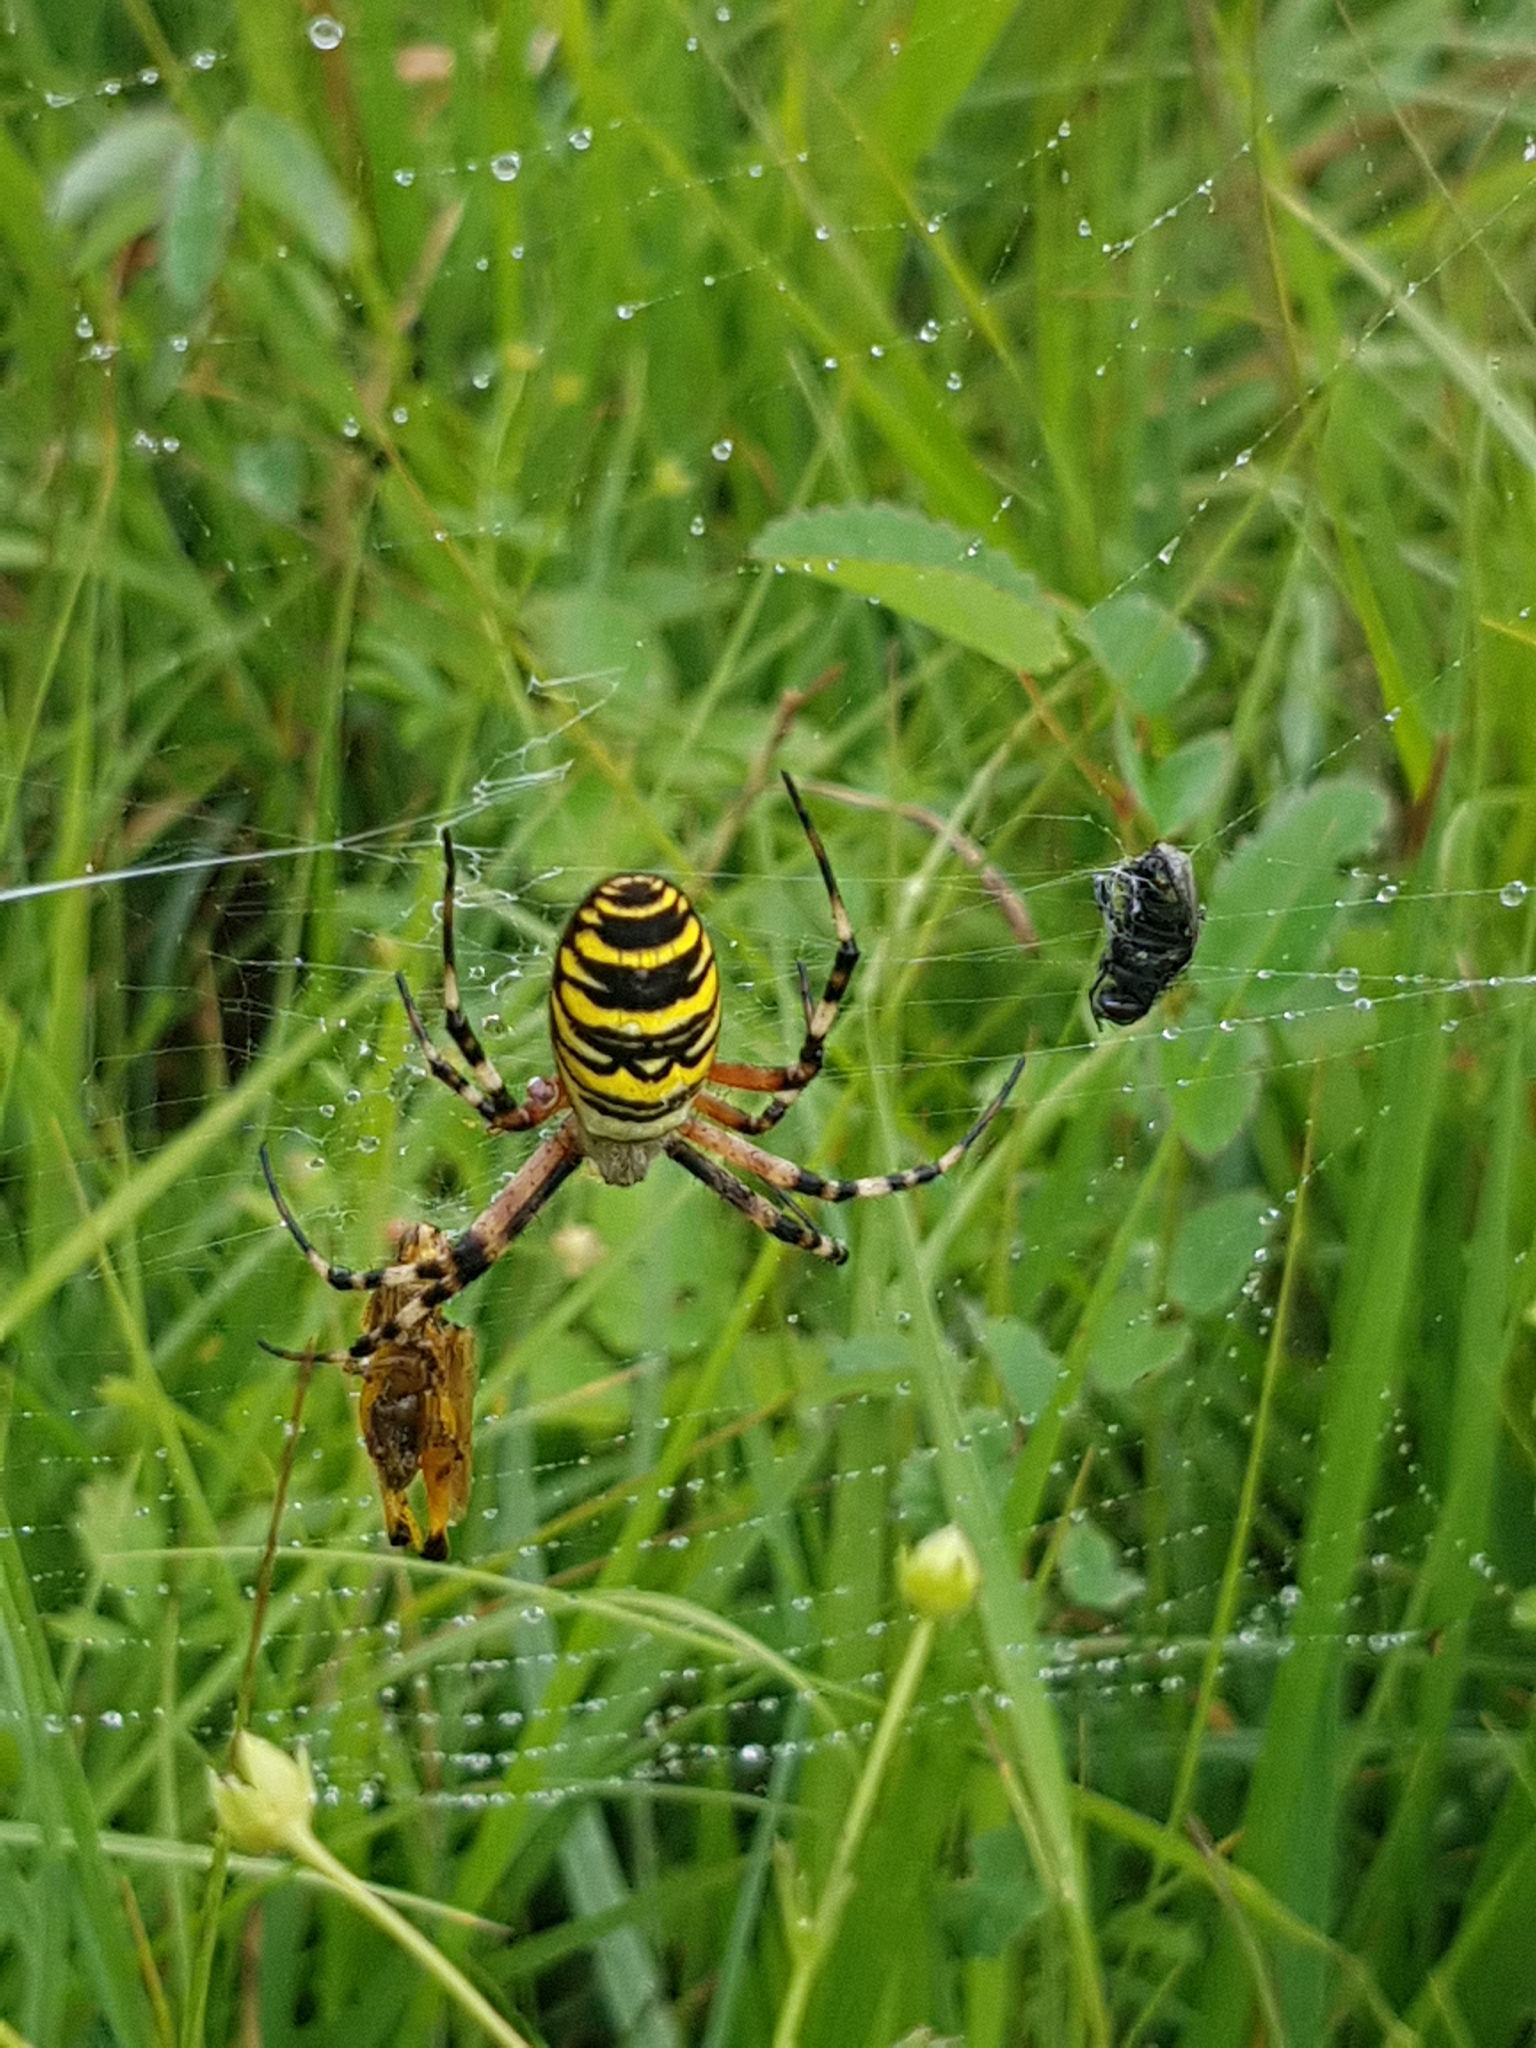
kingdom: Animalia
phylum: Arthropoda
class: Arachnida
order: Araneae
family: Araneidae
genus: Argiope
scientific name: Argiope bruennichi
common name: Wasp spider
